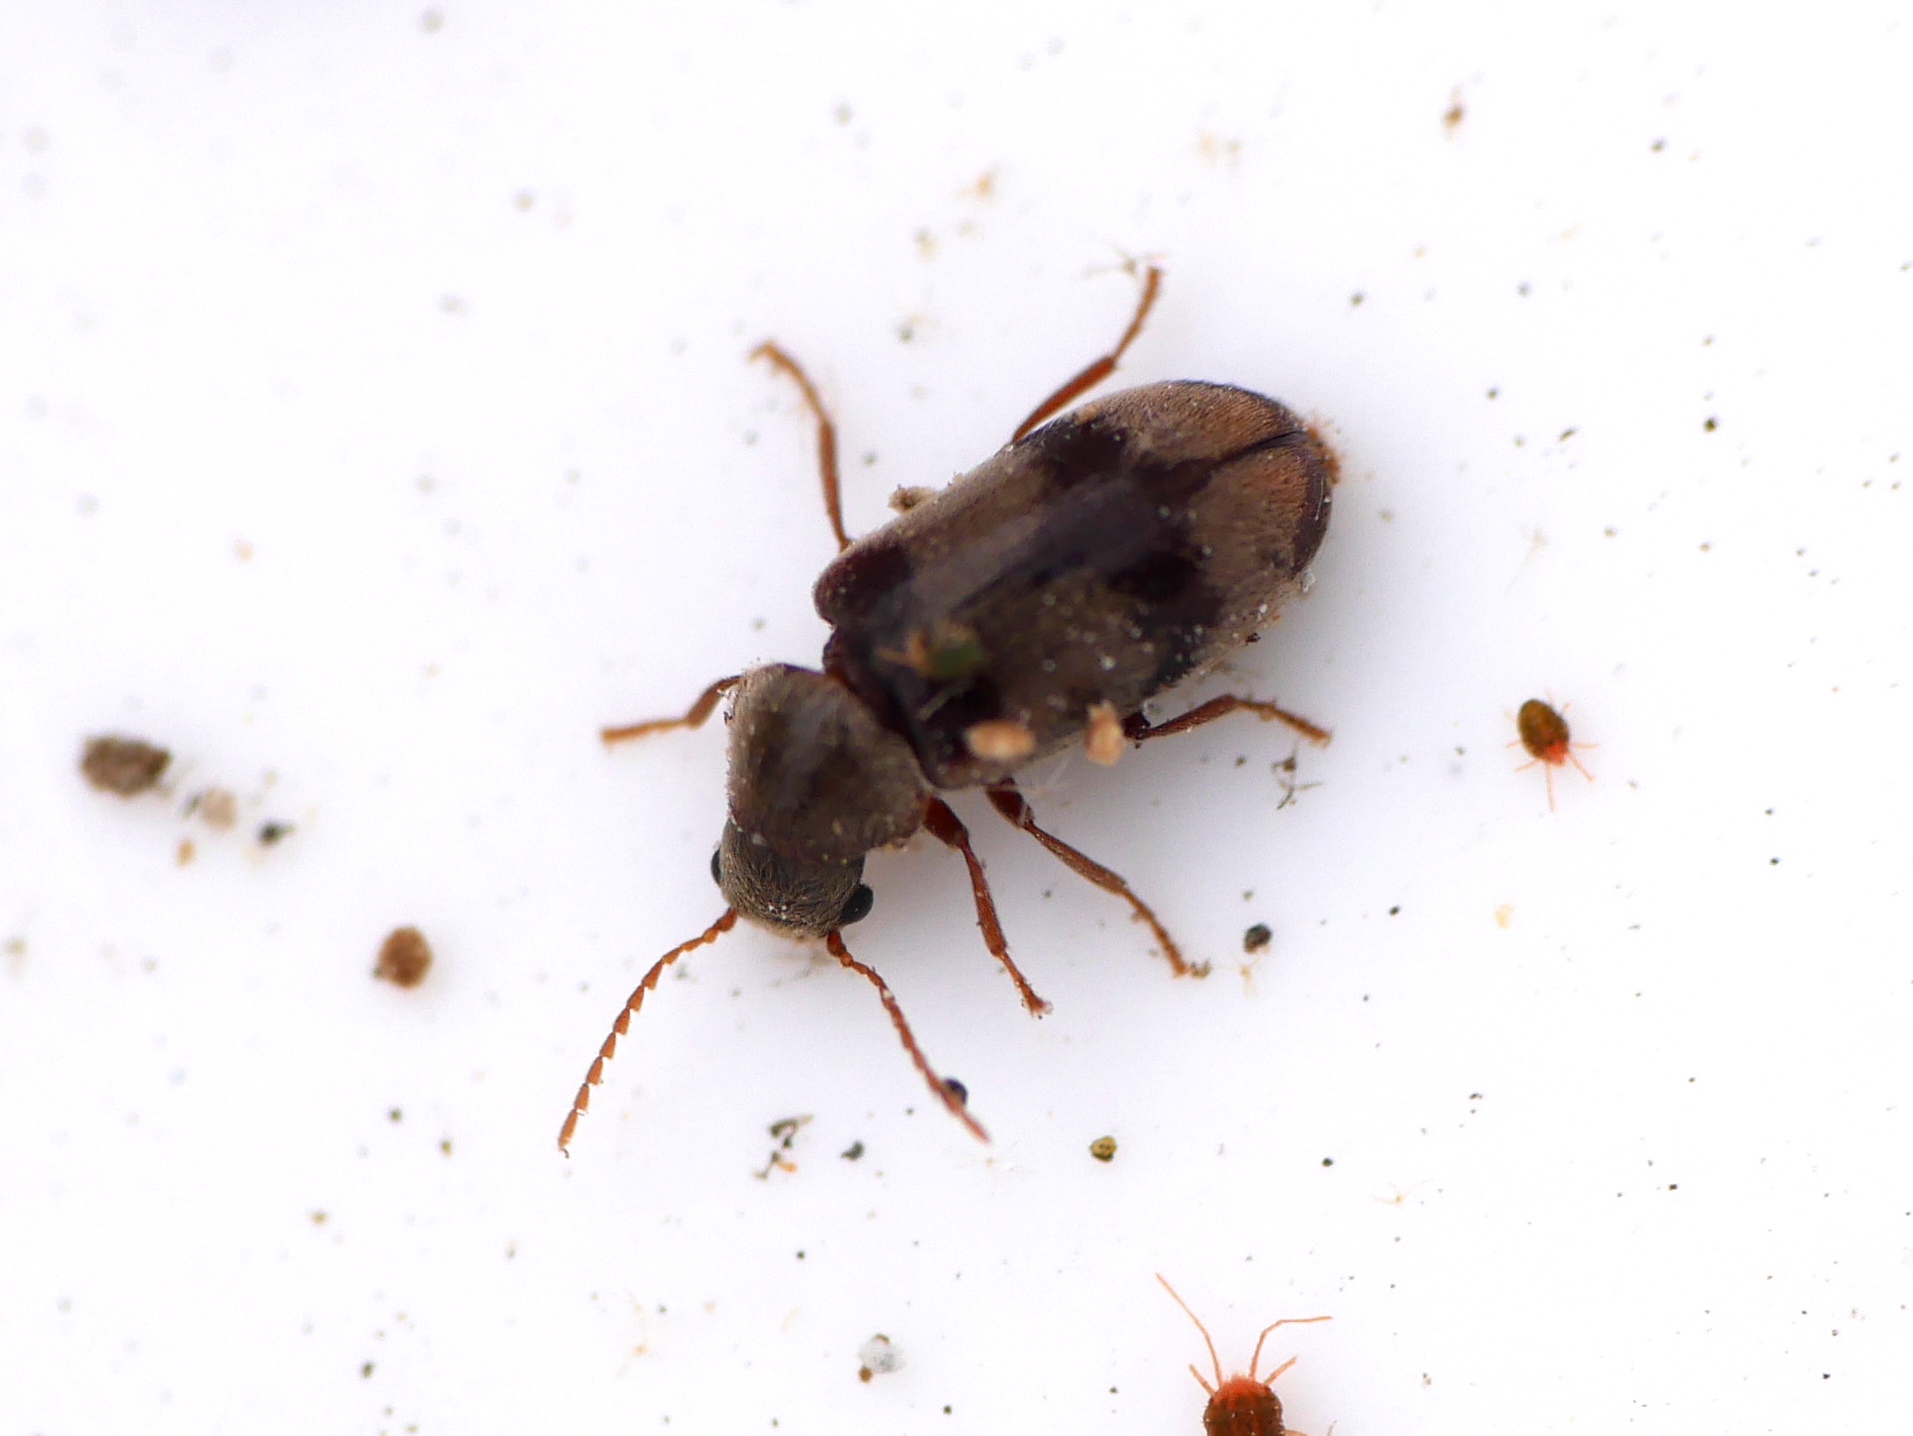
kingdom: Animalia
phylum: Arthropoda
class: Insecta
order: Coleoptera
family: Ptinidae
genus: Ochina
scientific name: Ochina ptinoides
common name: Ivy boring beetle
